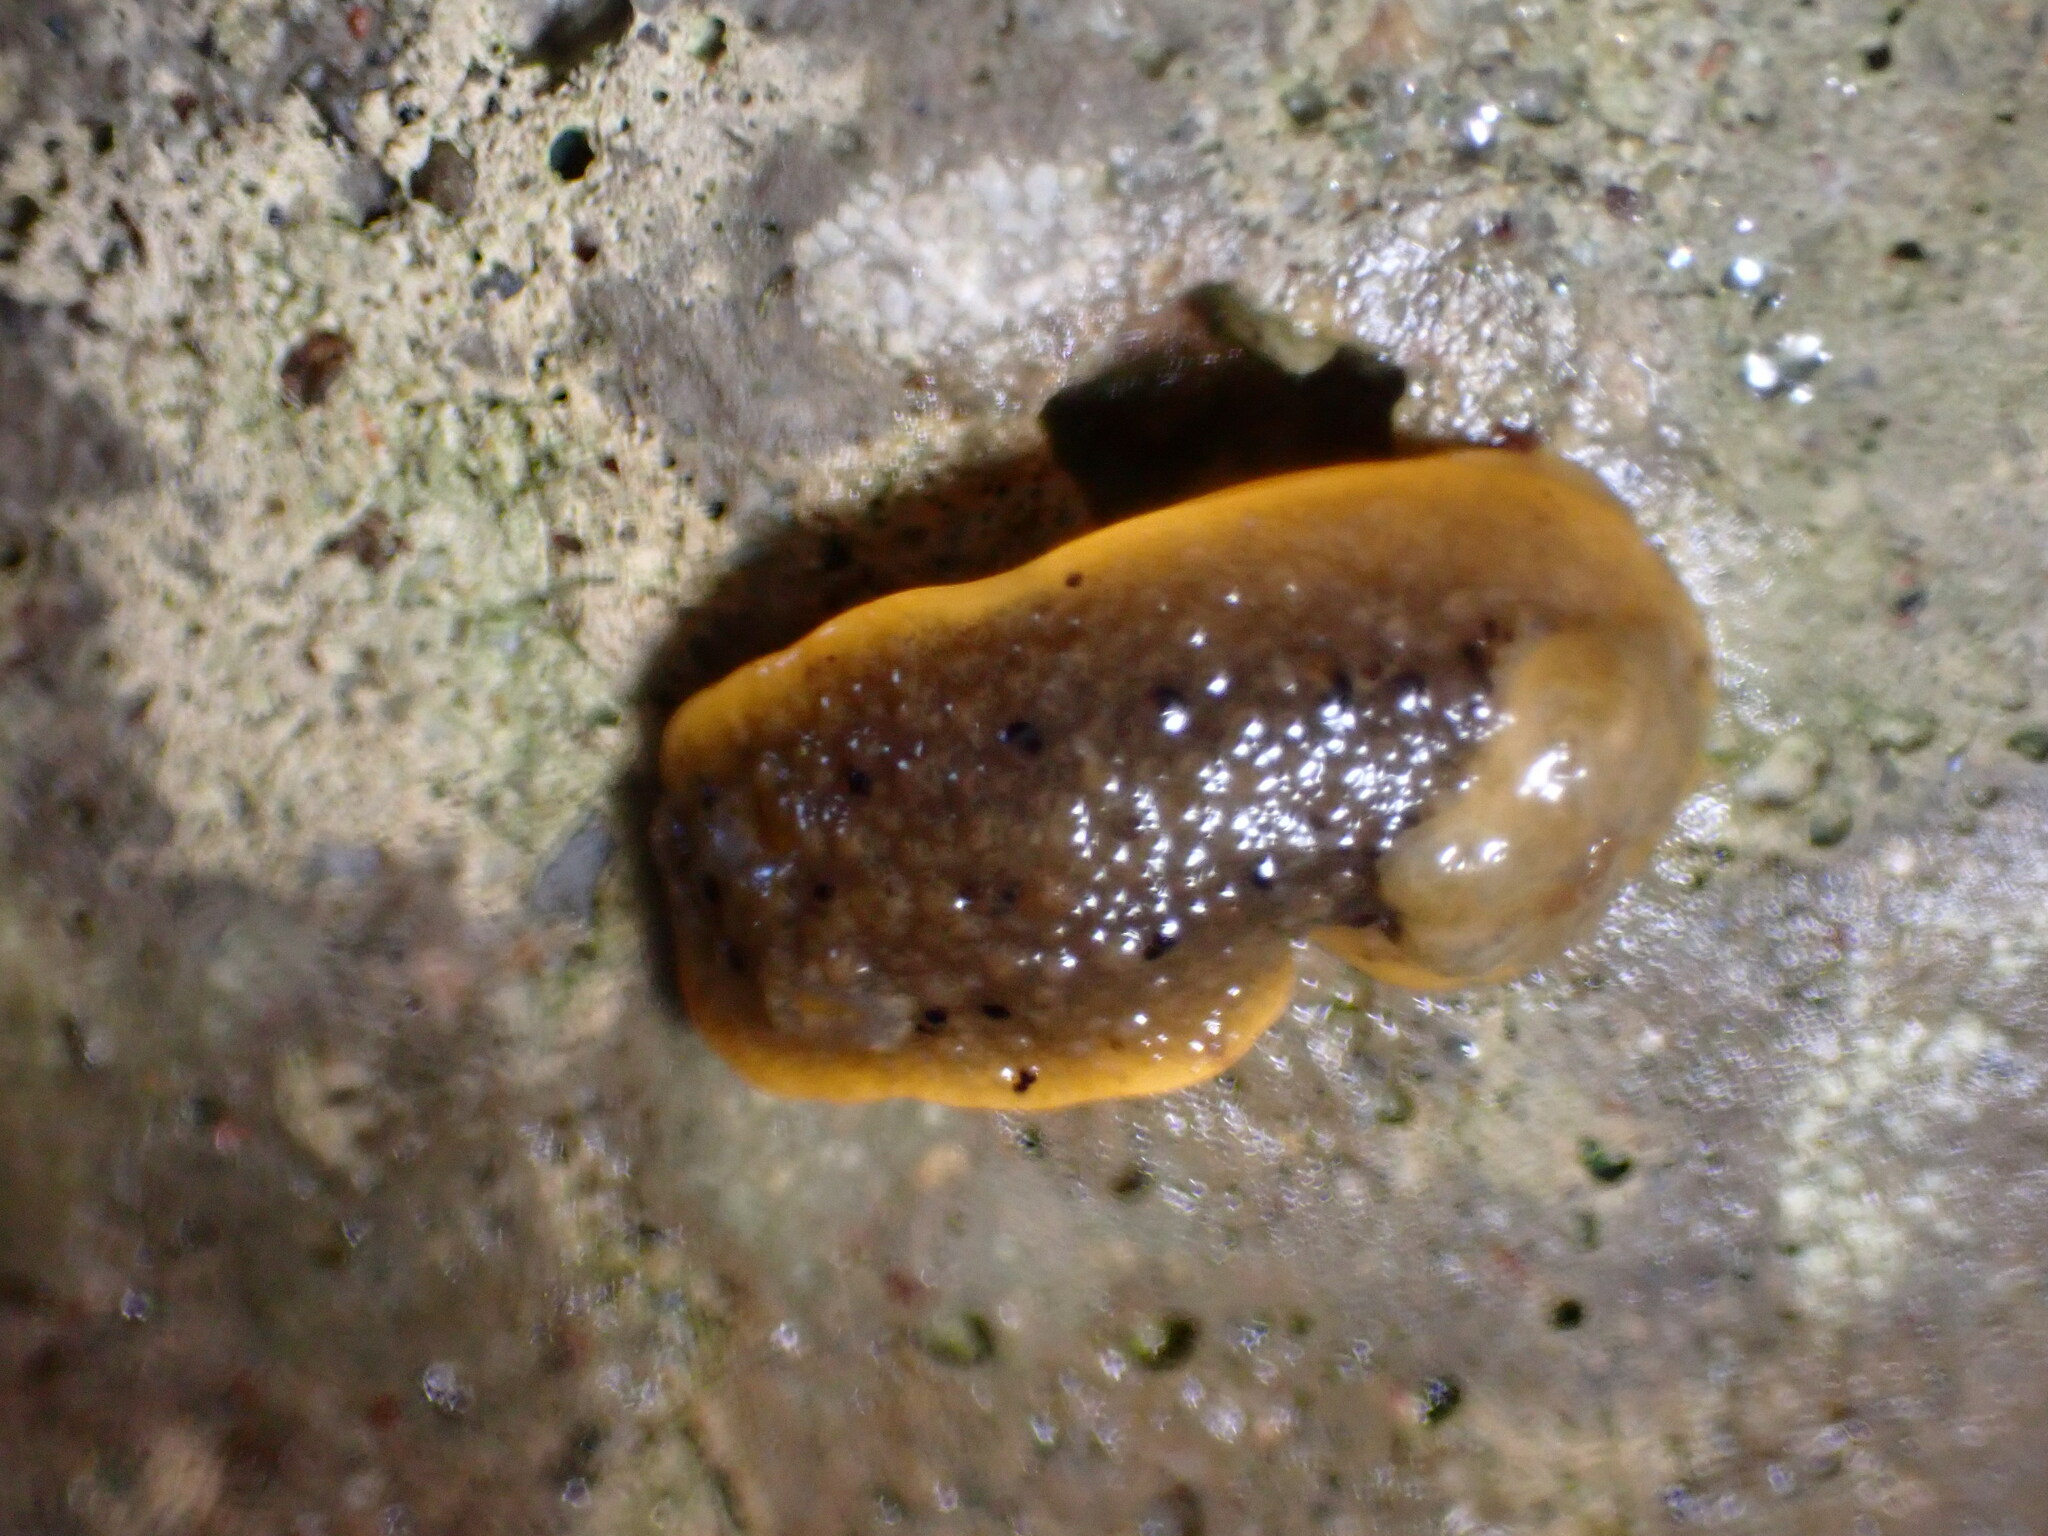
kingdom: Animalia
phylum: Mollusca
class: Gastropoda
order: Nudibranchia
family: Dorididae
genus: Doris
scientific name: Doris montereyensis
